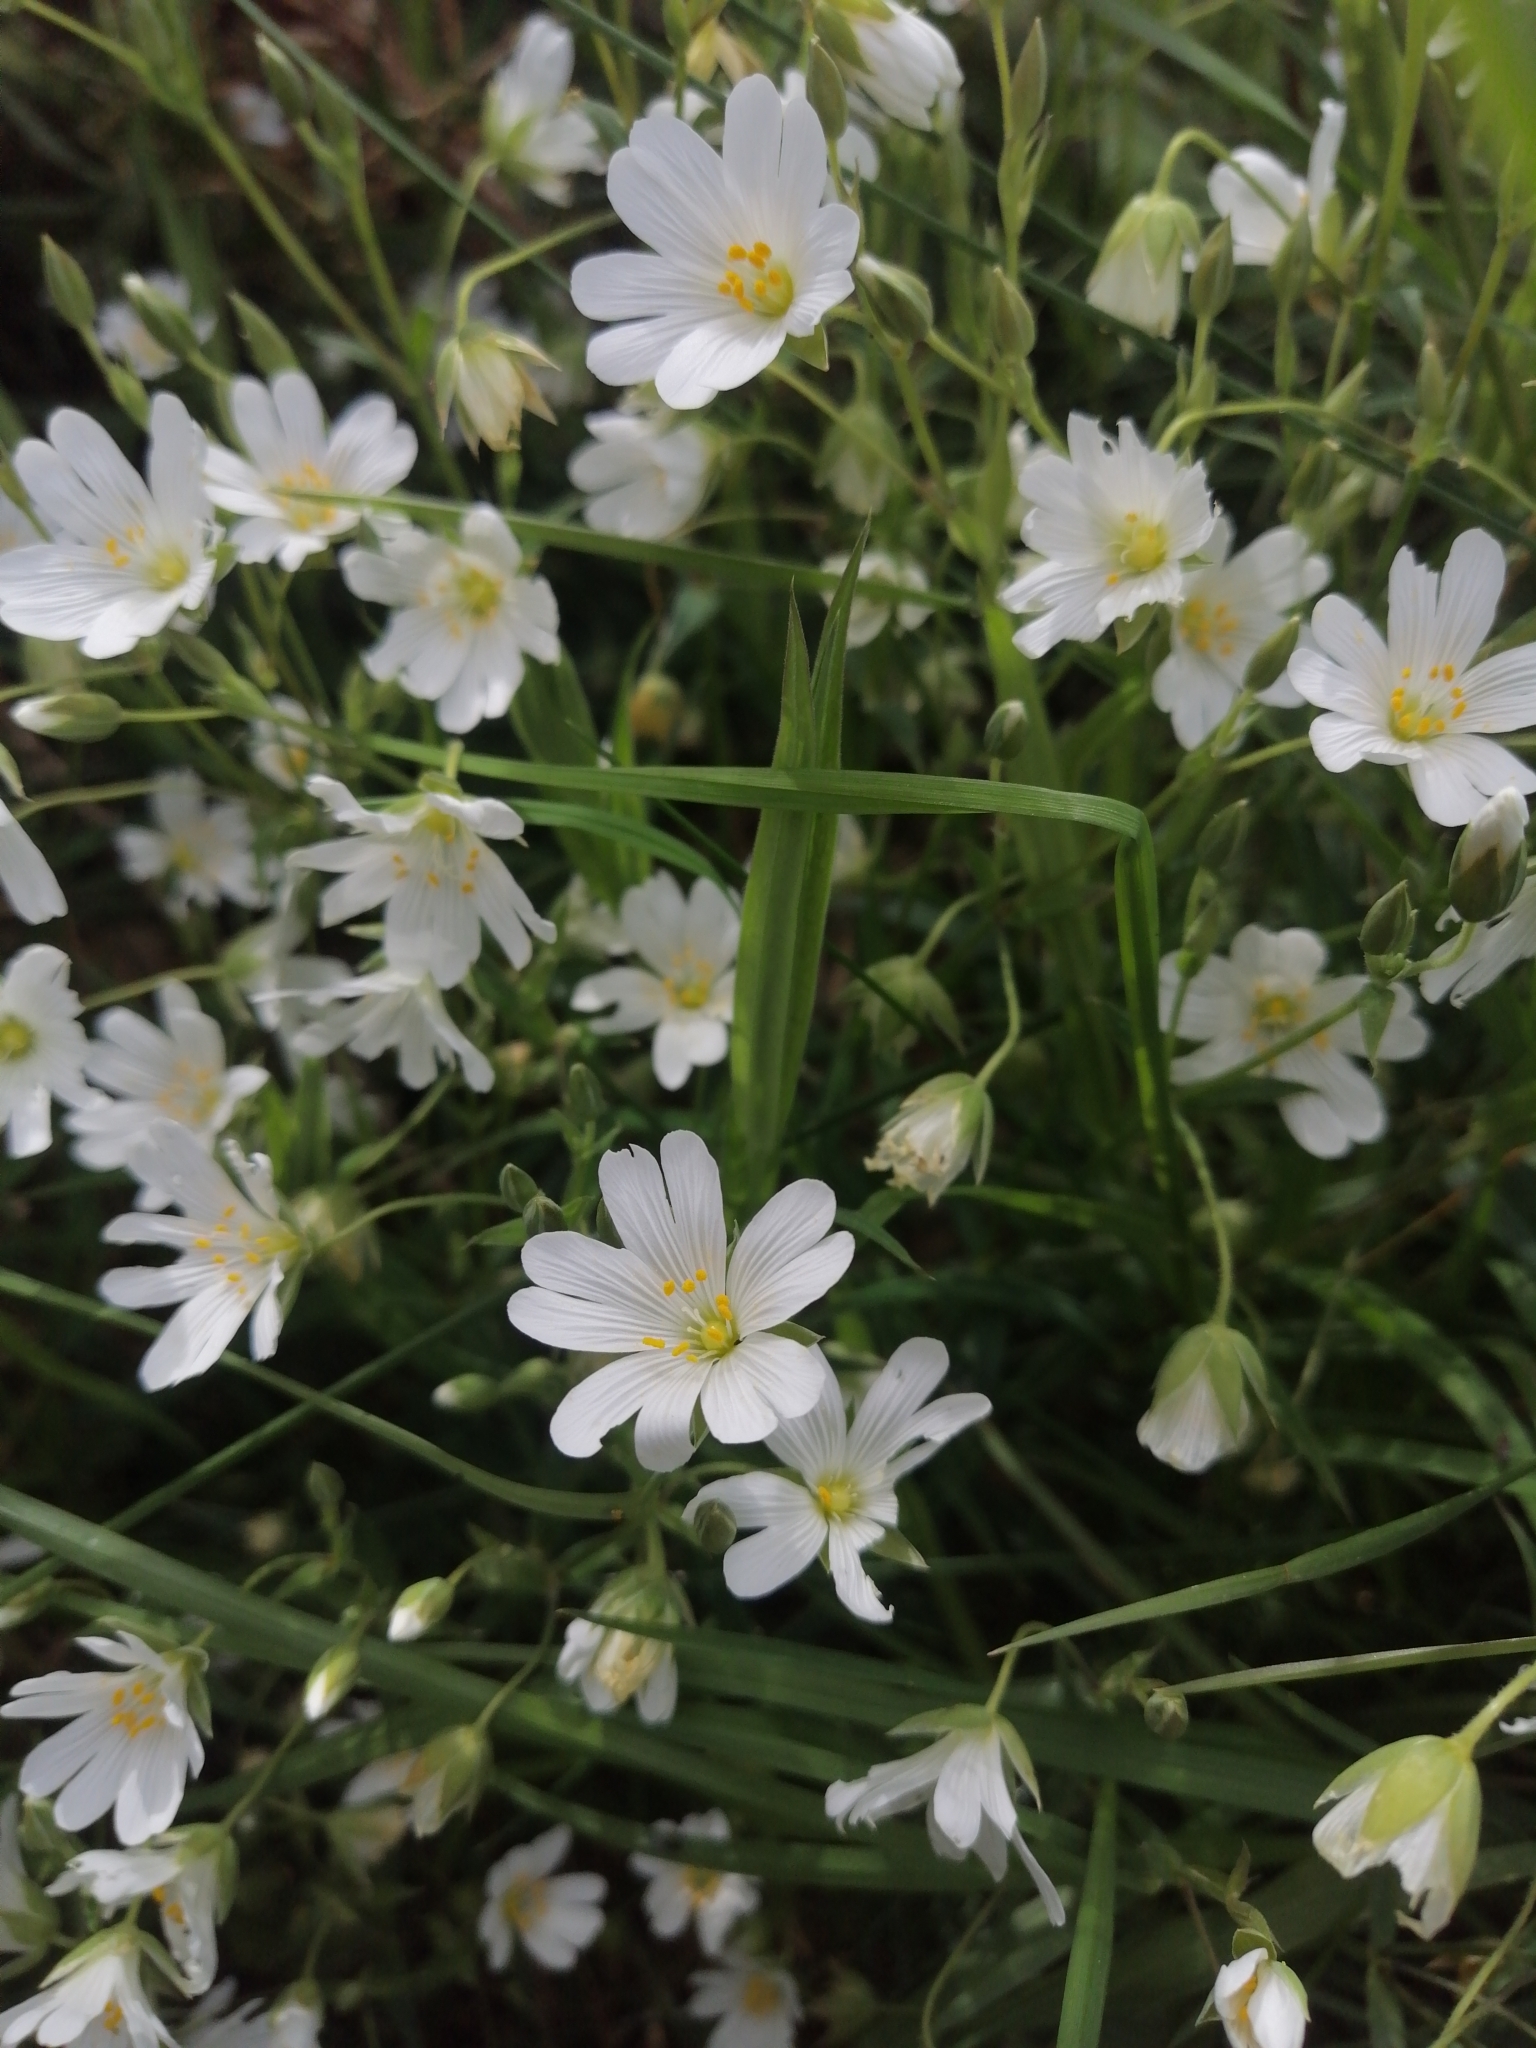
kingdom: Plantae
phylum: Tracheophyta
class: Magnoliopsida
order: Caryophyllales
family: Caryophyllaceae
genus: Rabelera
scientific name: Rabelera holostea
